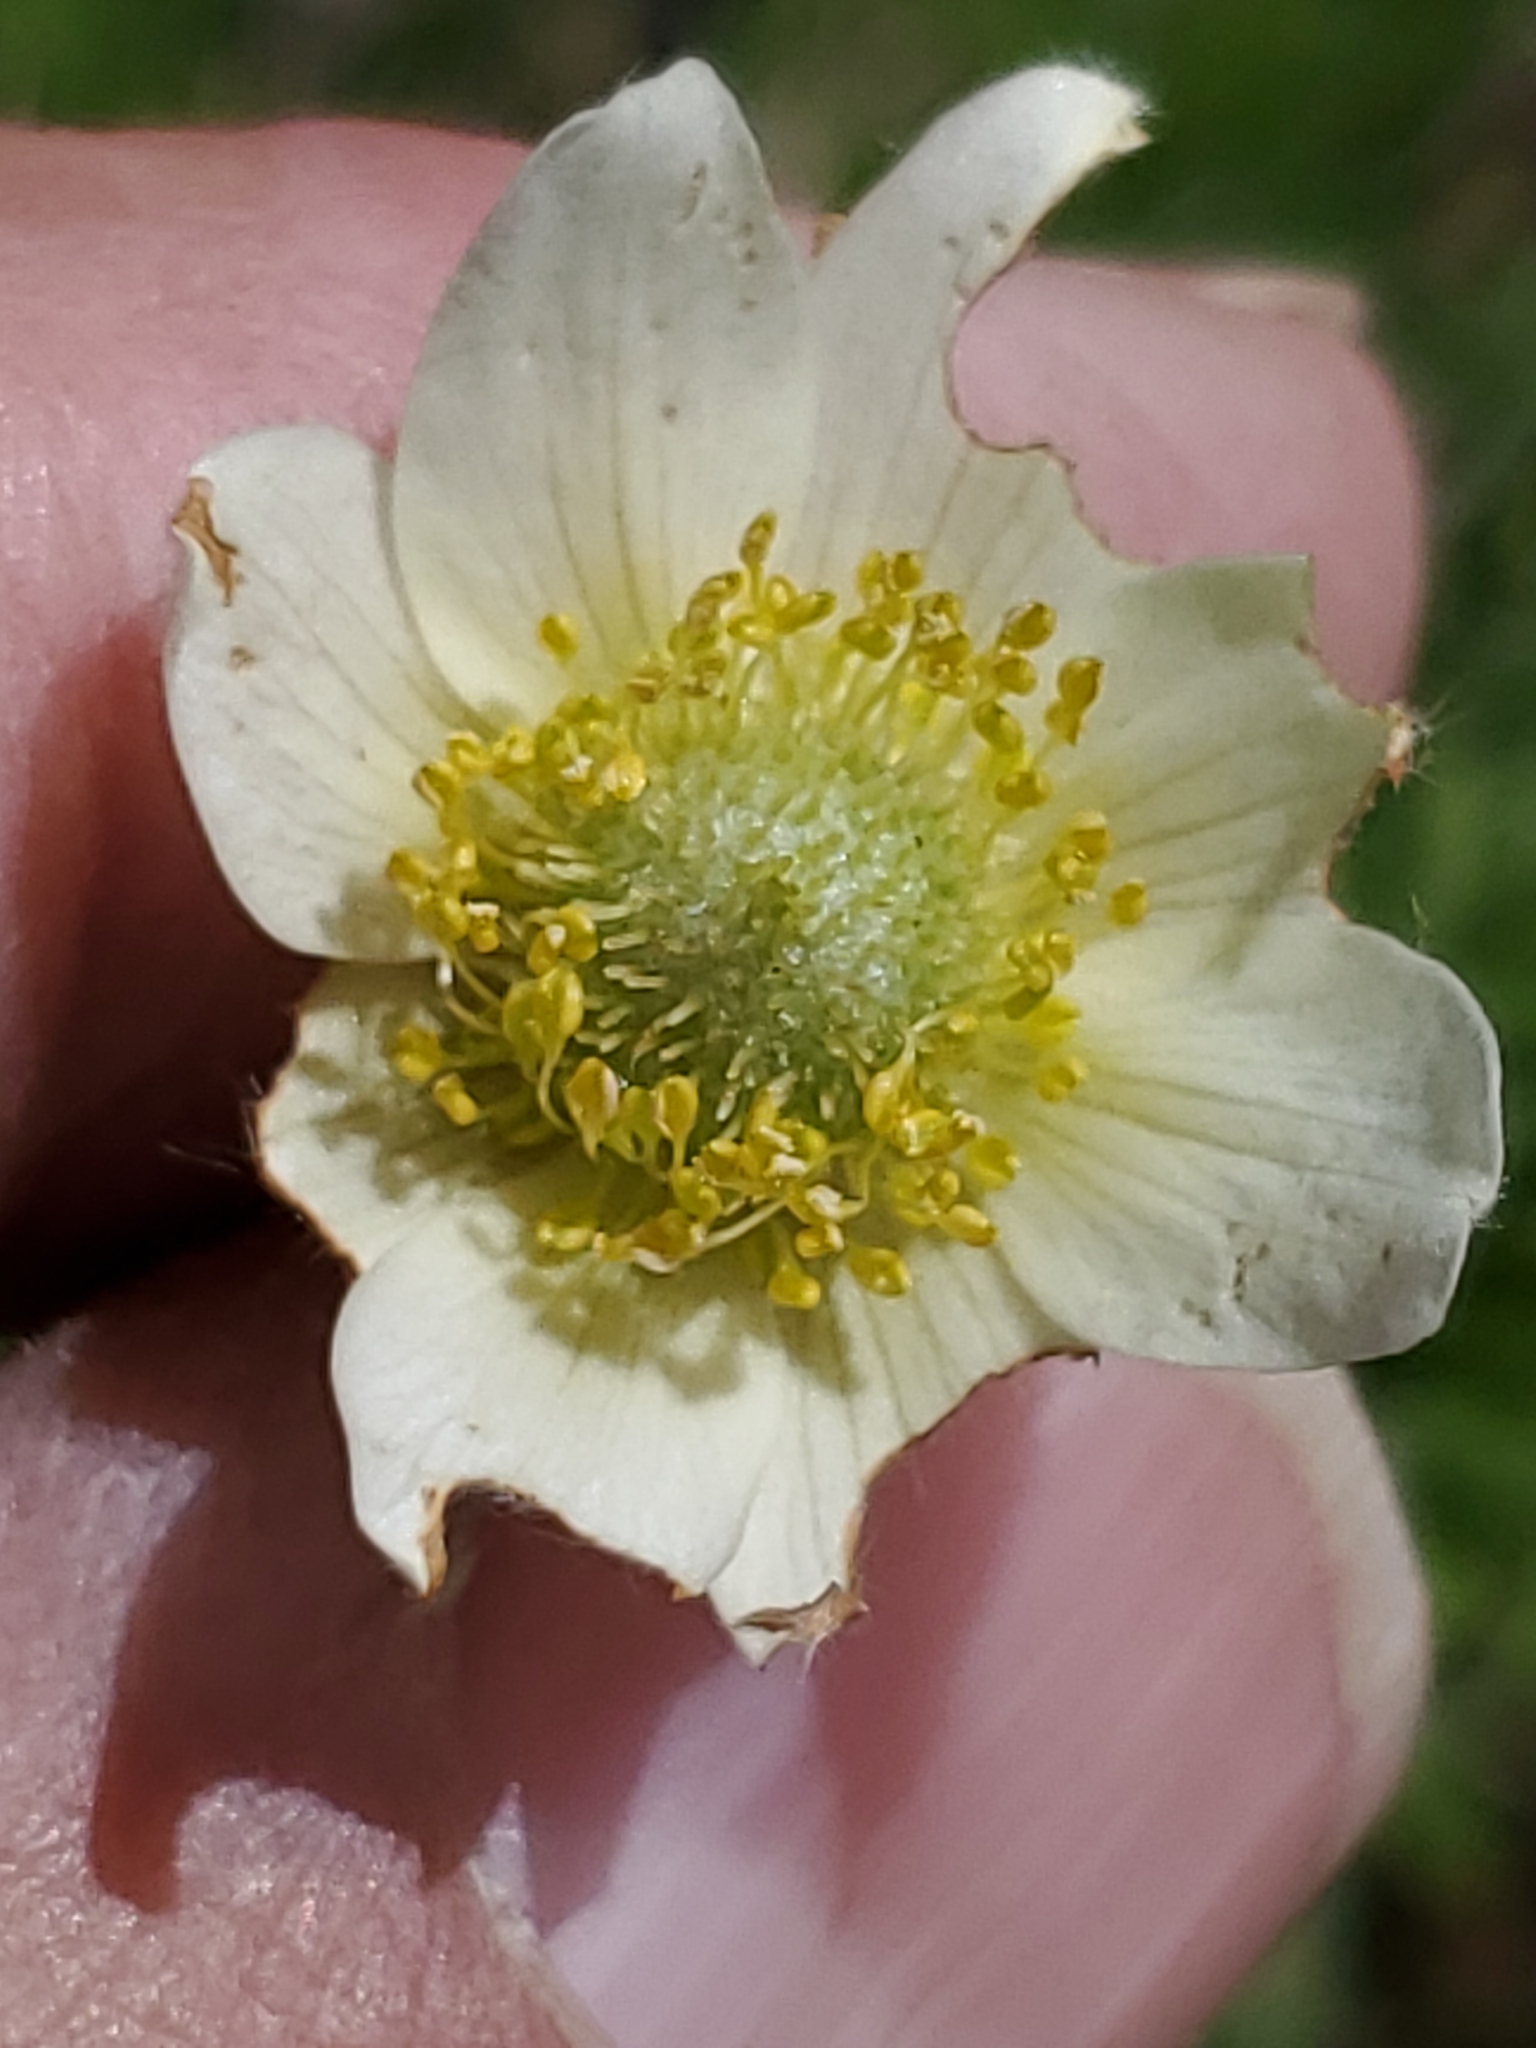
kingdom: Plantae
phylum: Tracheophyta
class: Magnoliopsida
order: Ranunculales
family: Ranunculaceae
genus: Anemone
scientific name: Anemone multifida
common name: Bird's-foot anemone
